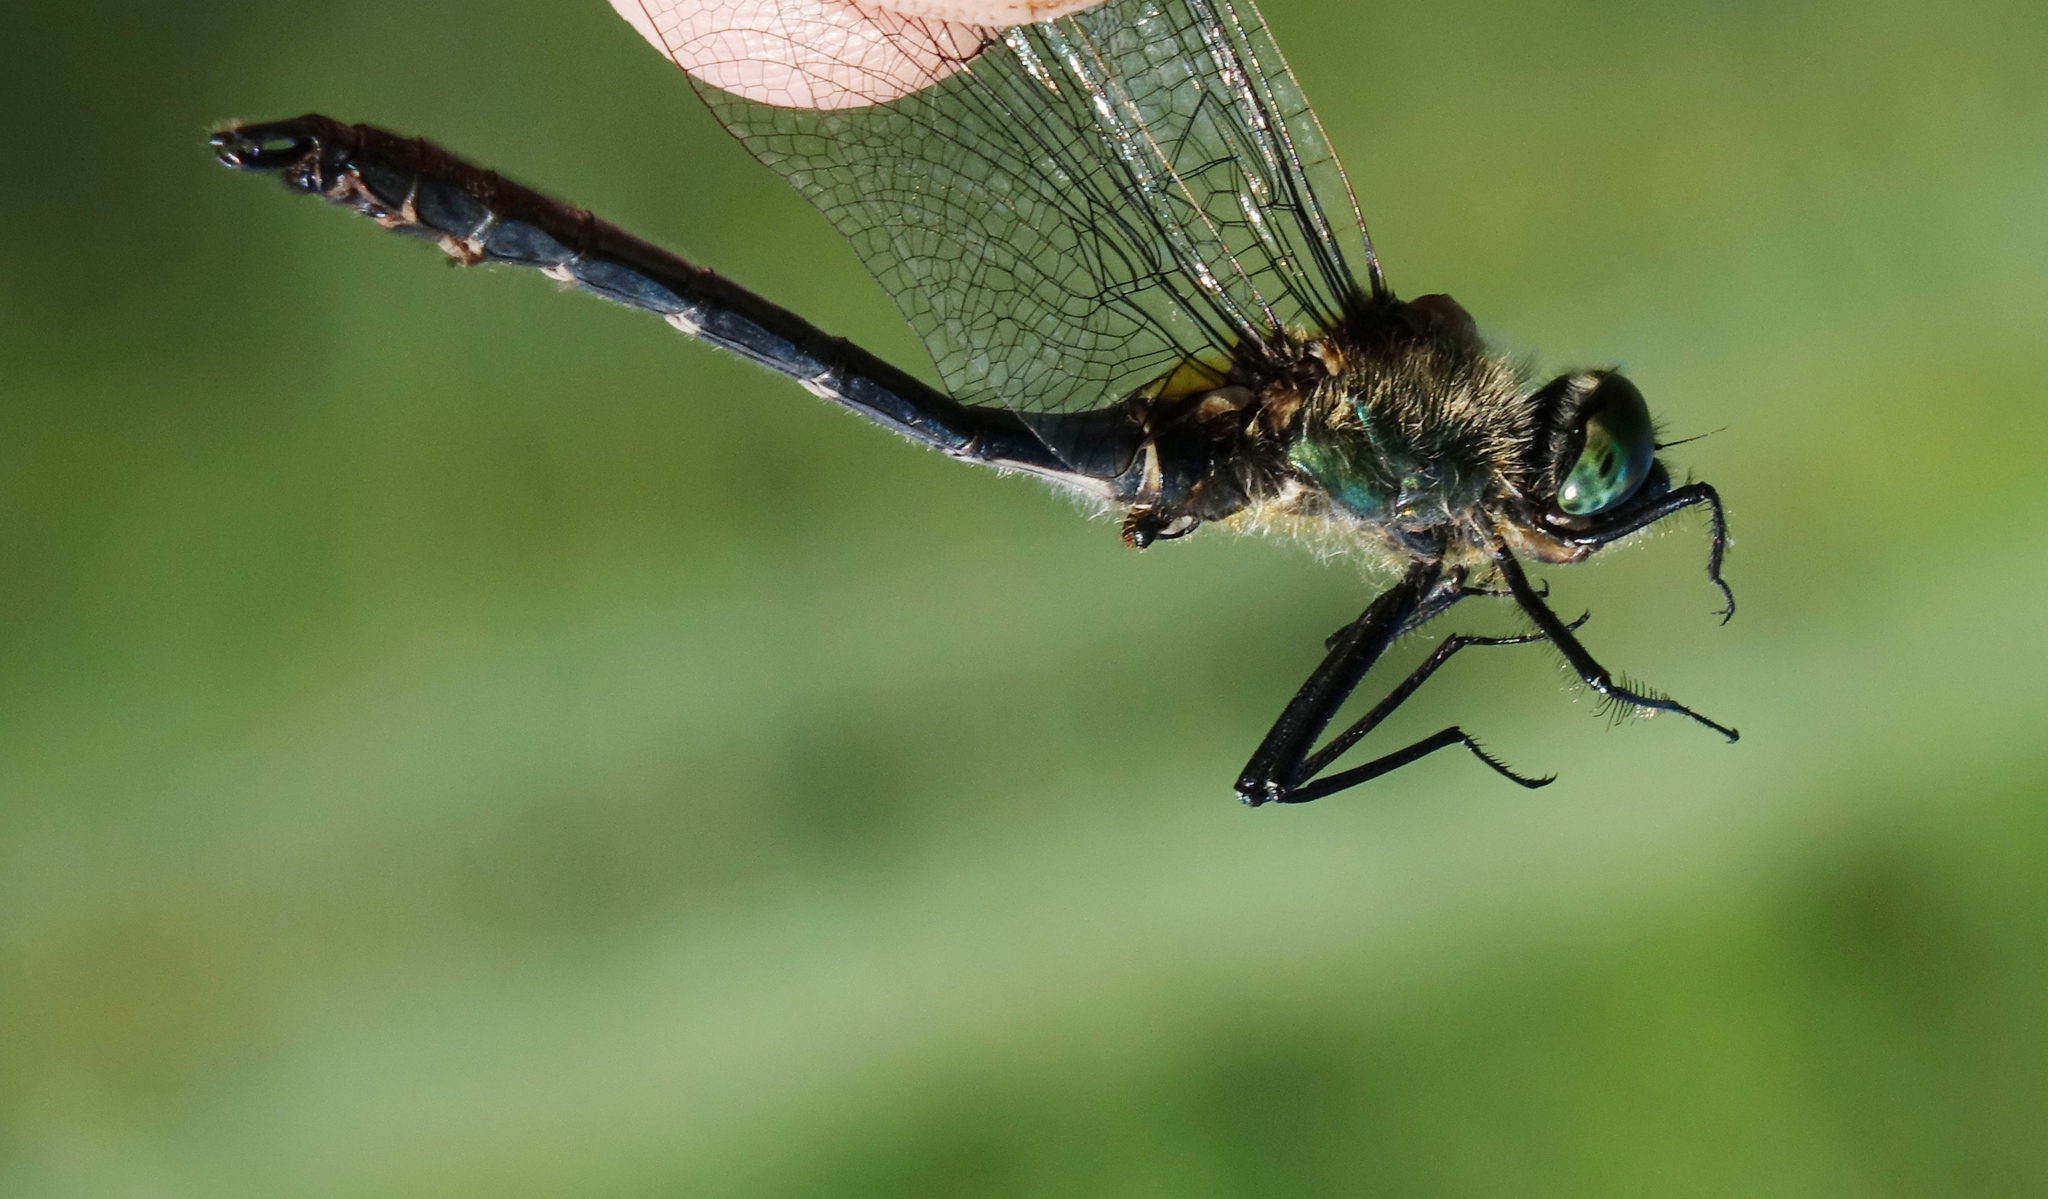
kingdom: Animalia
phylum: Arthropoda
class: Insecta
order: Odonata
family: Corduliidae
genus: Cordulia
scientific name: Cordulia aenea
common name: Downy emerald
